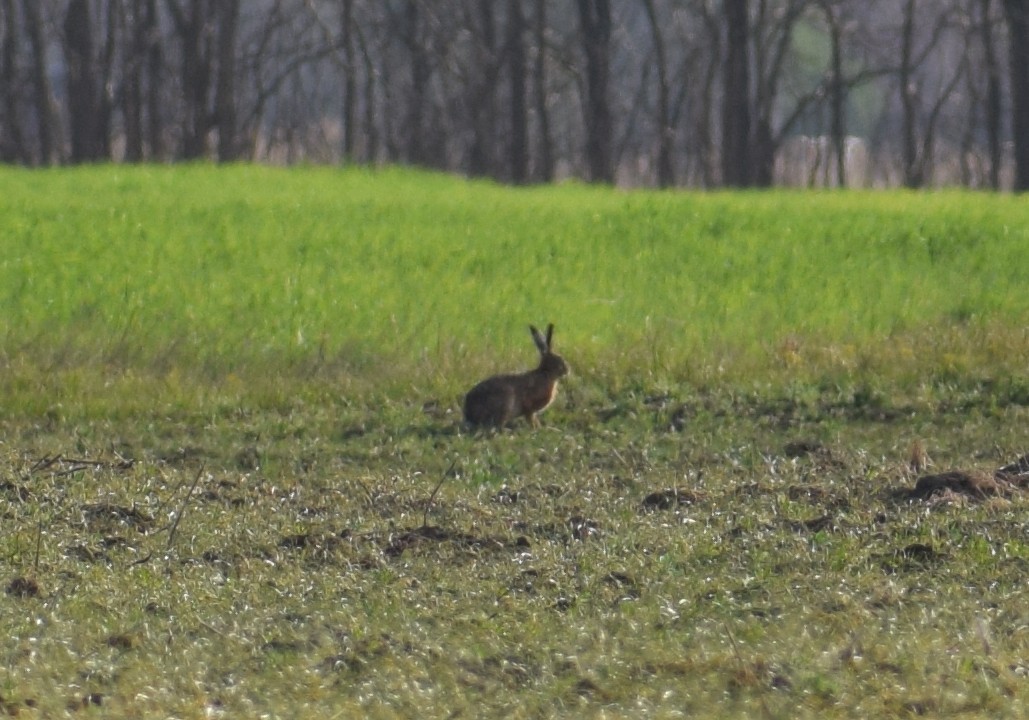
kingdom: Animalia
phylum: Chordata
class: Mammalia
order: Lagomorpha
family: Leporidae
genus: Lepus
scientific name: Lepus europaeus
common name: European hare
